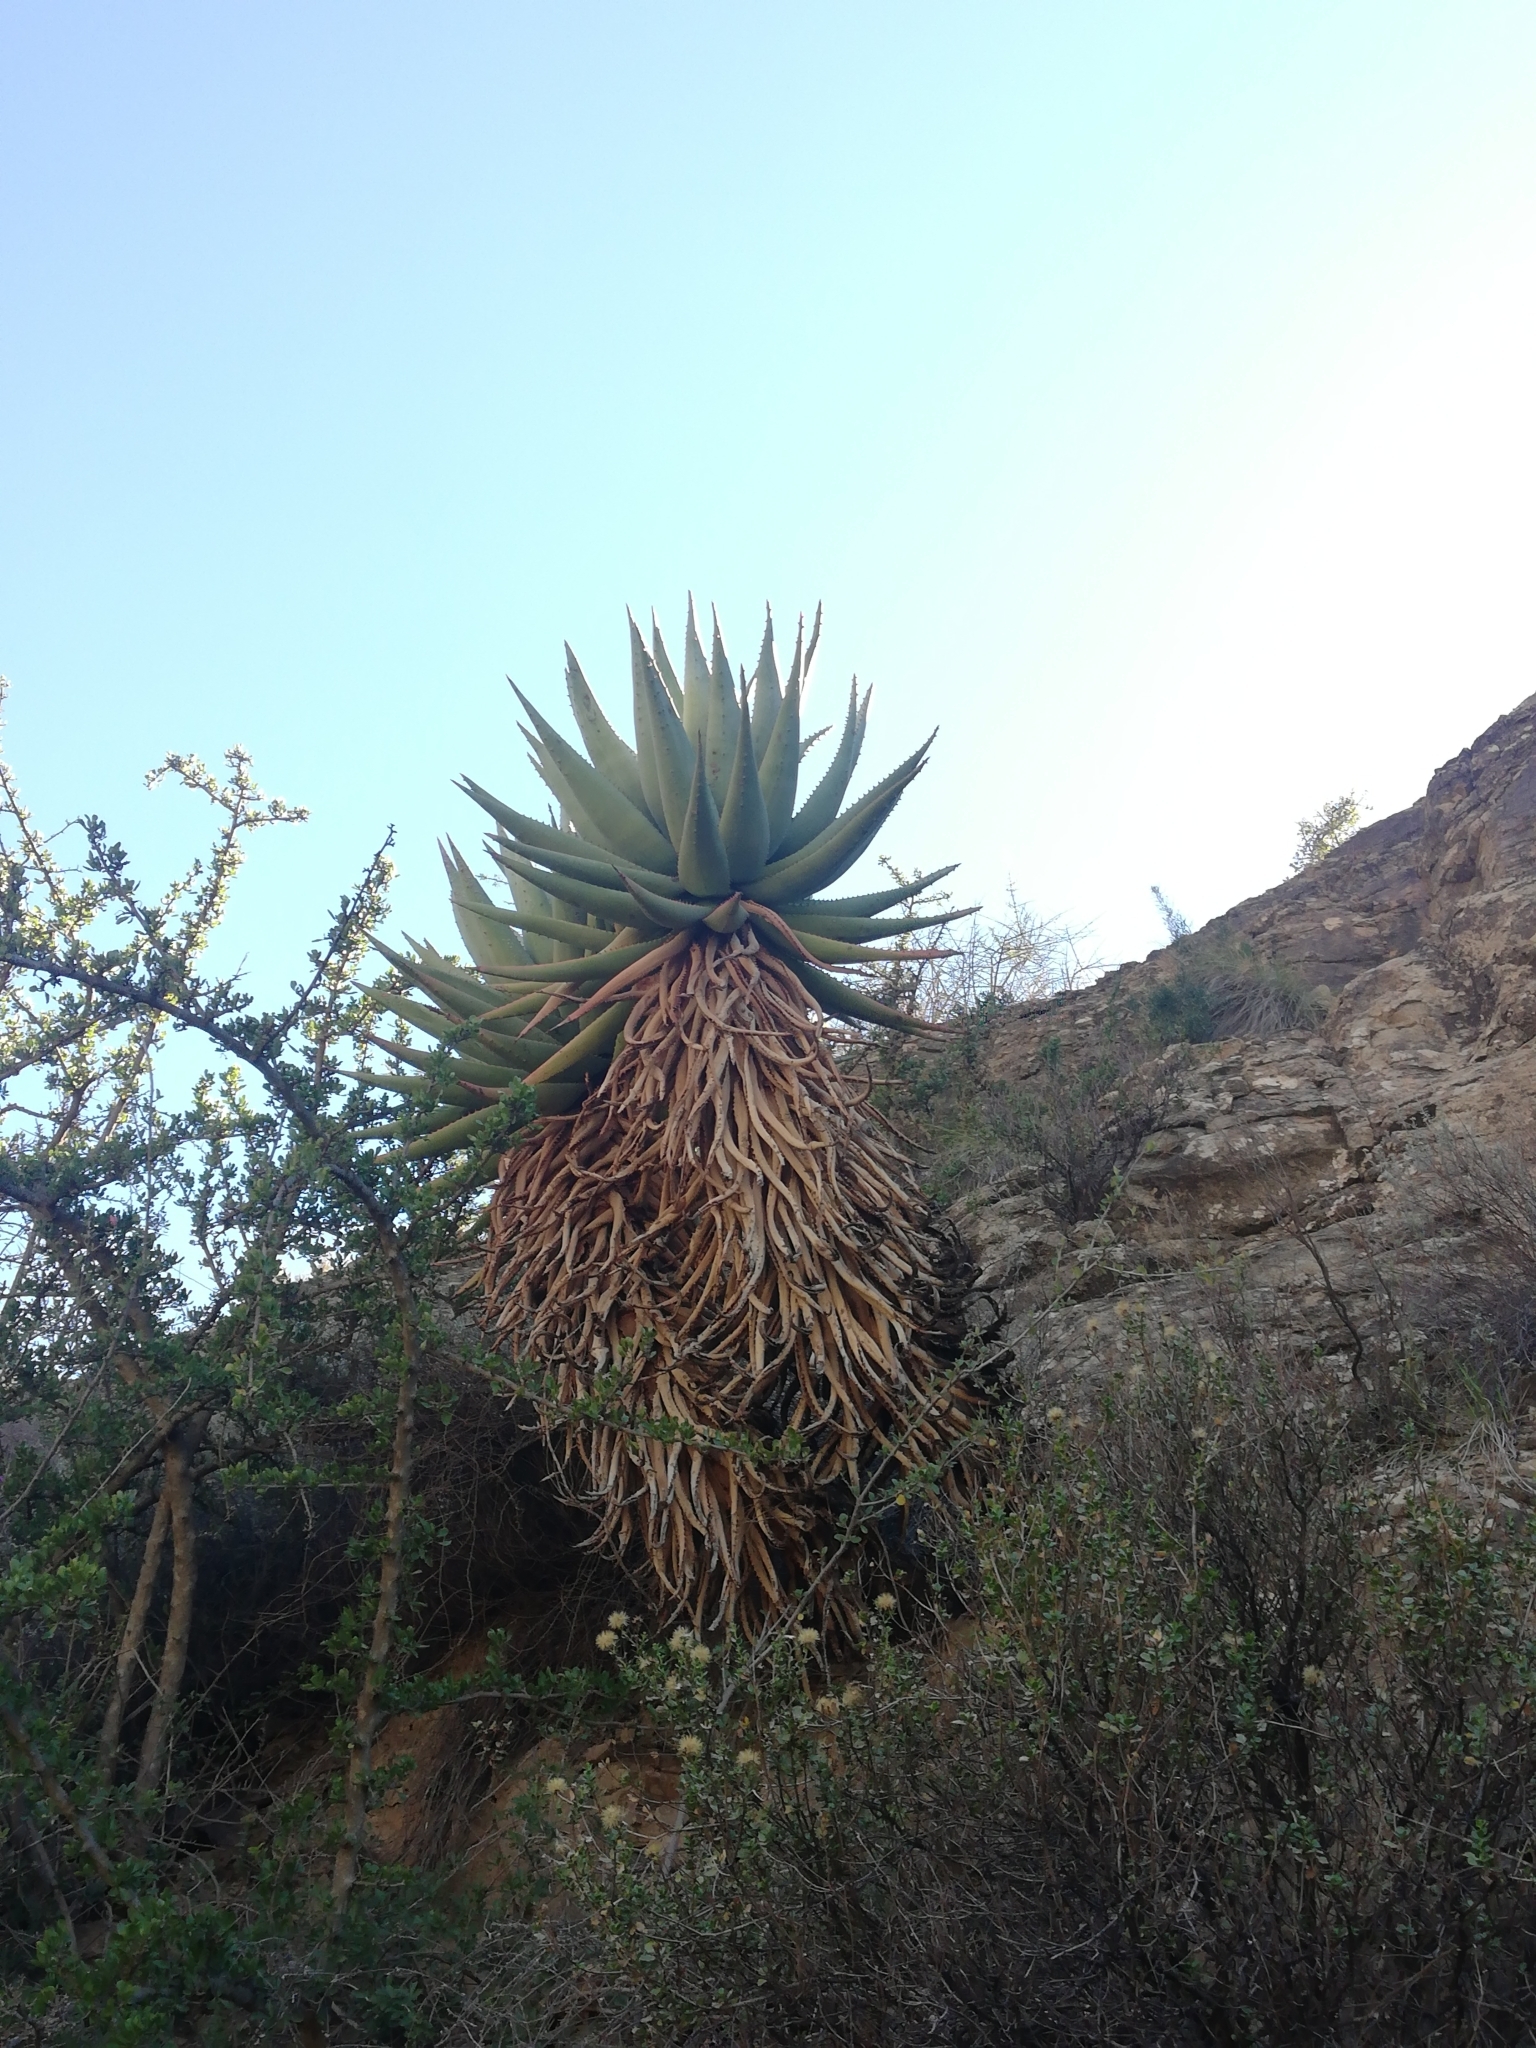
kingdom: Plantae
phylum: Tracheophyta
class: Liliopsida
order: Asparagales
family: Asphodelaceae
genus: Aloe
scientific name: Aloe ferox
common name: Bitter aloe
